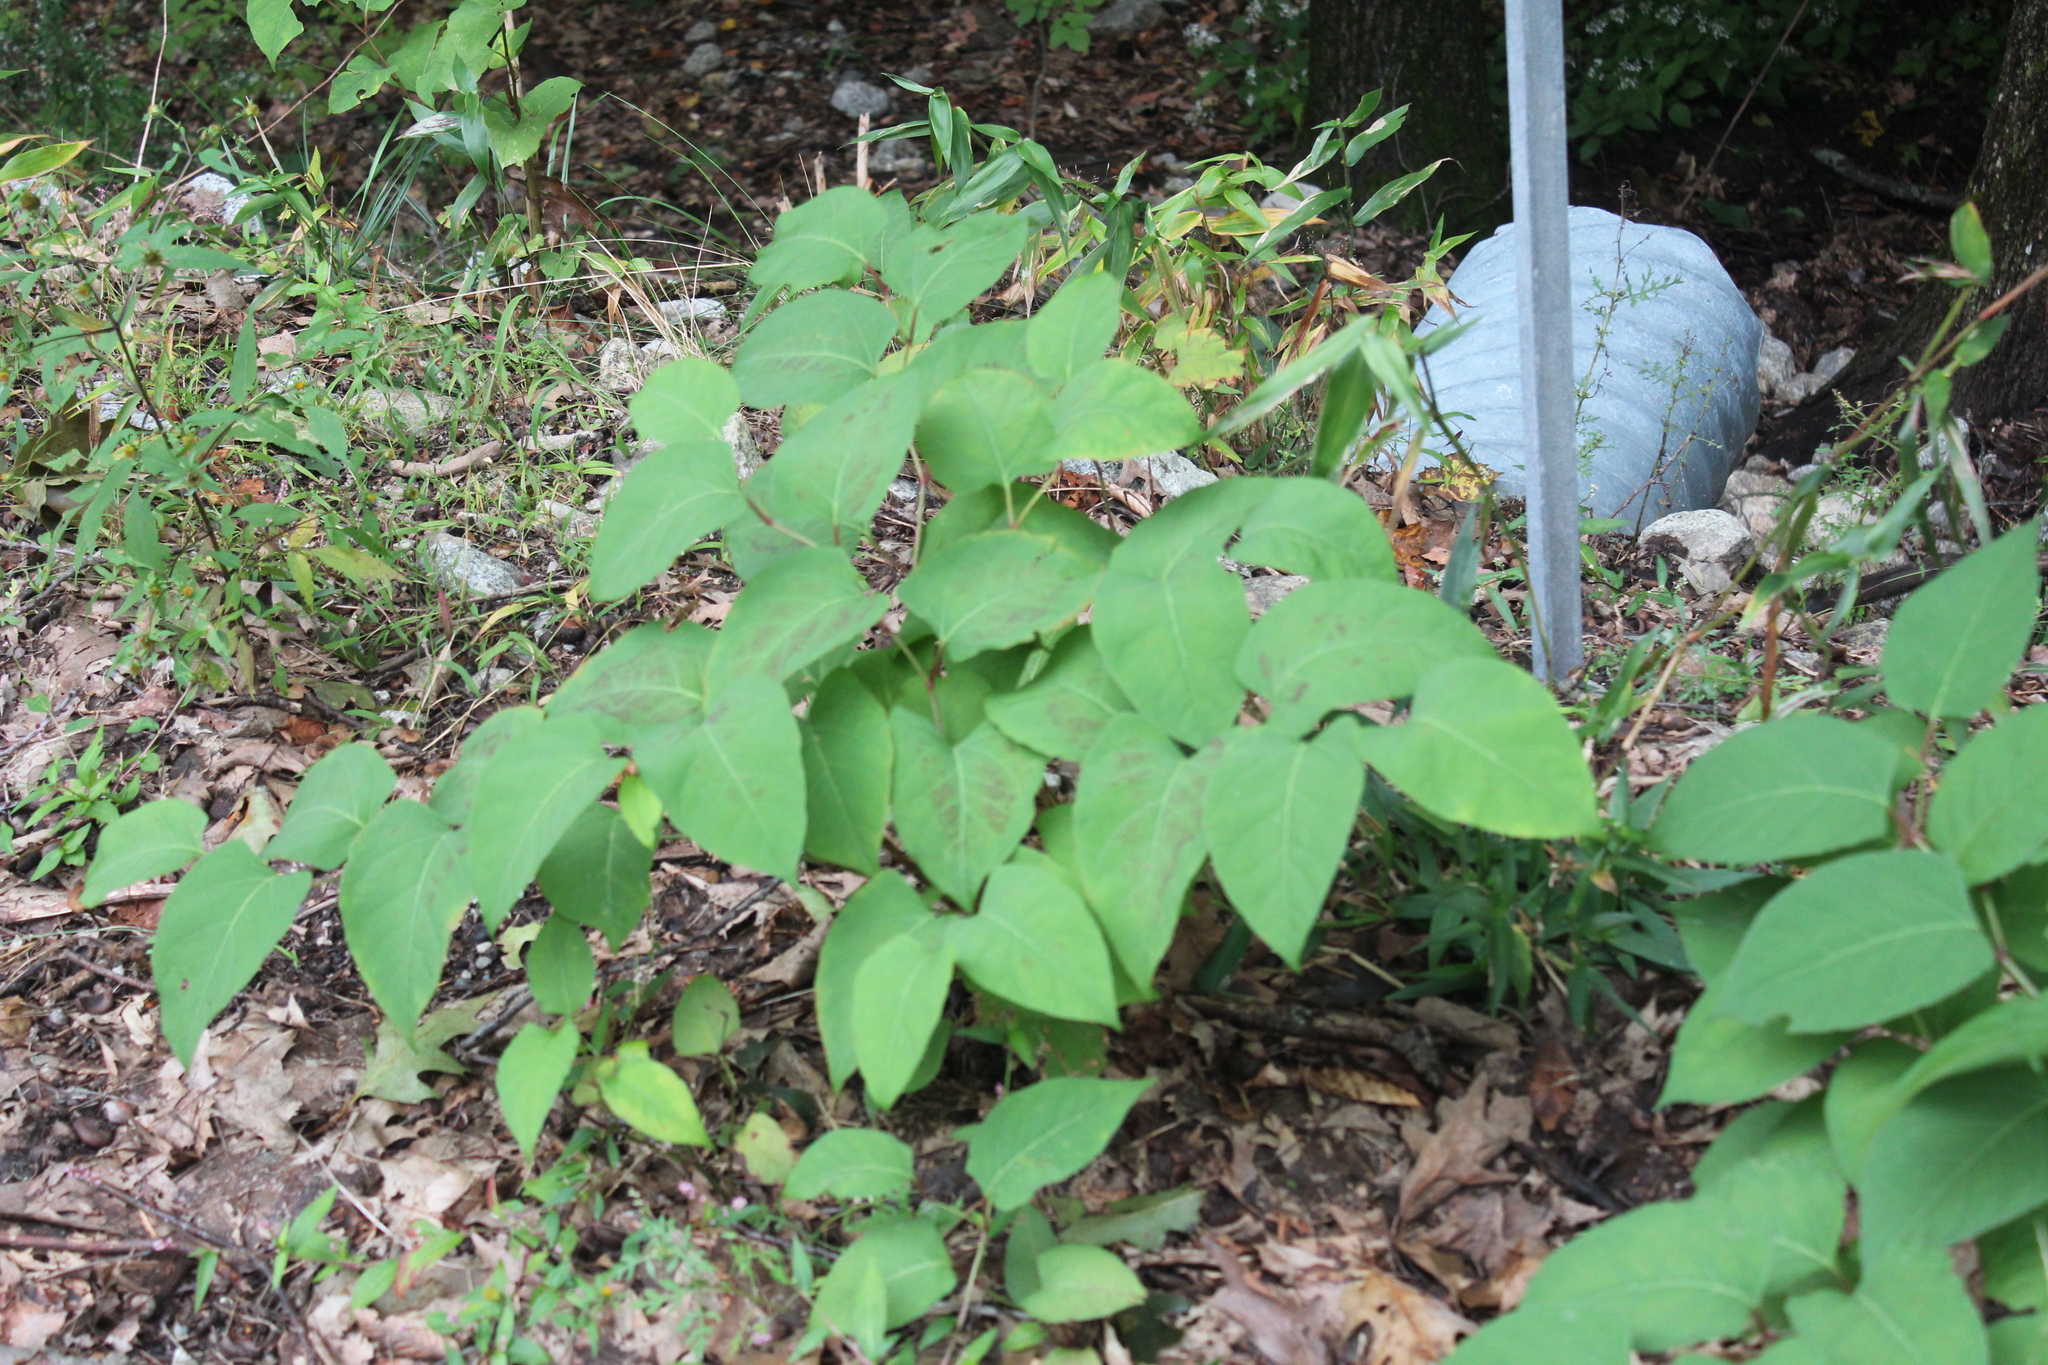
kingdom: Plantae
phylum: Tracheophyta
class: Magnoliopsida
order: Caryophyllales
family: Polygonaceae
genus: Reynoutria
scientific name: Reynoutria japonica
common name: Japanese knotweed
